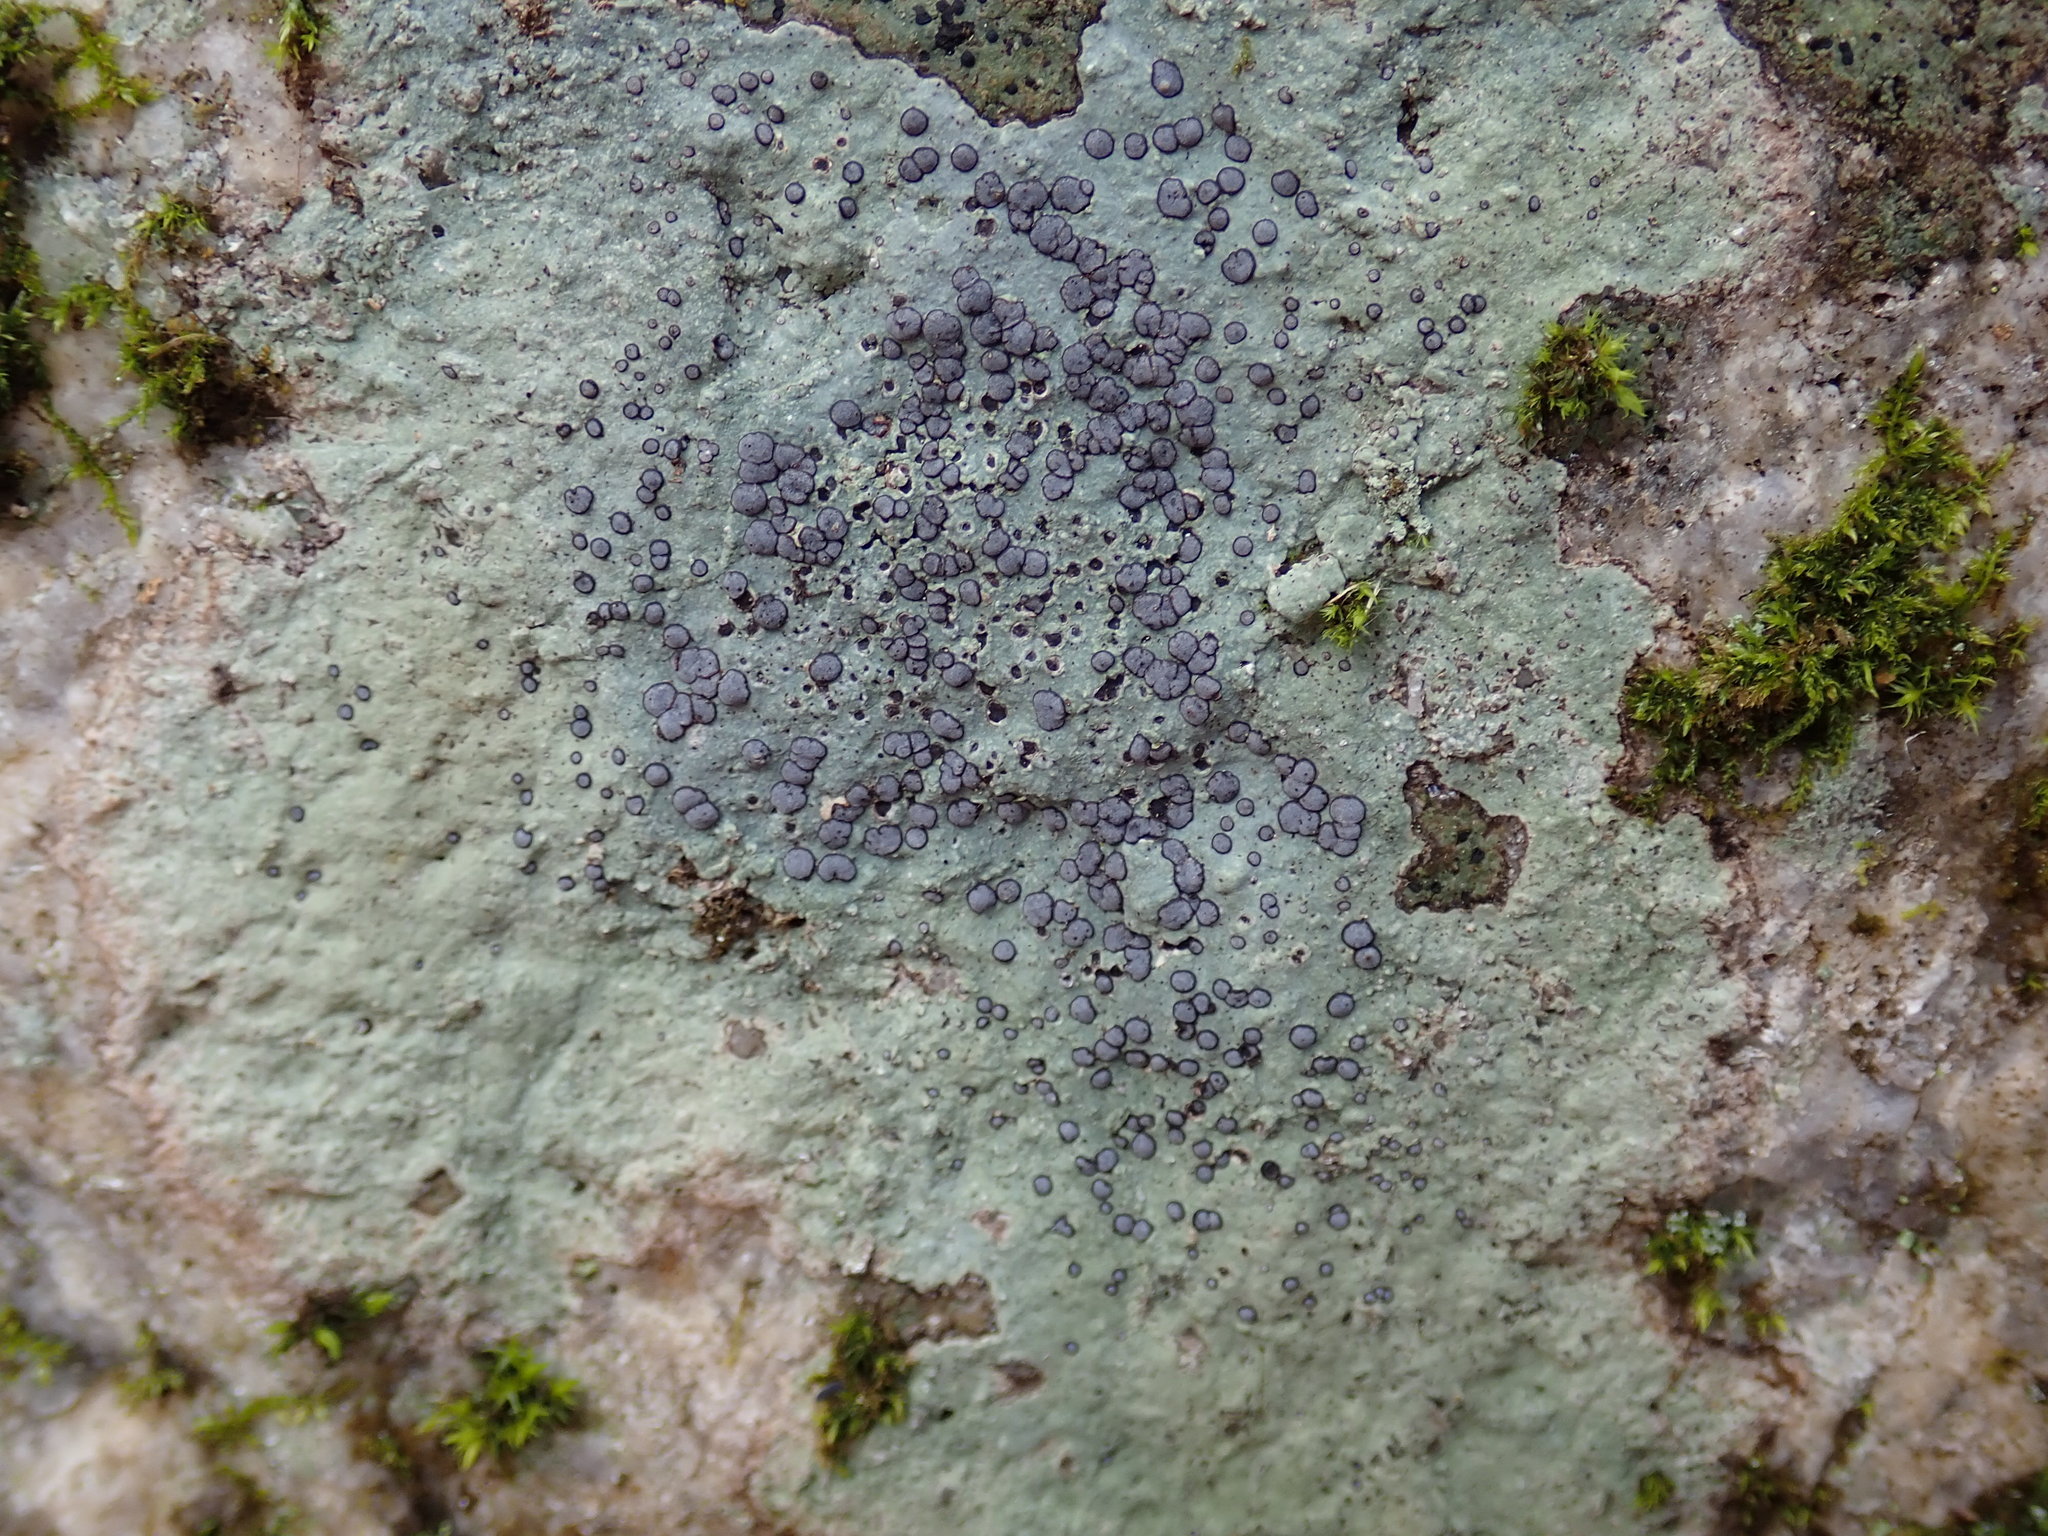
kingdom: Fungi
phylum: Ascomycota
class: Lecanoromycetes
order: Lecideales
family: Lecideaceae
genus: Porpidia
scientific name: Porpidia albocaerulescens
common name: Smokey-eyed boulder lichen
